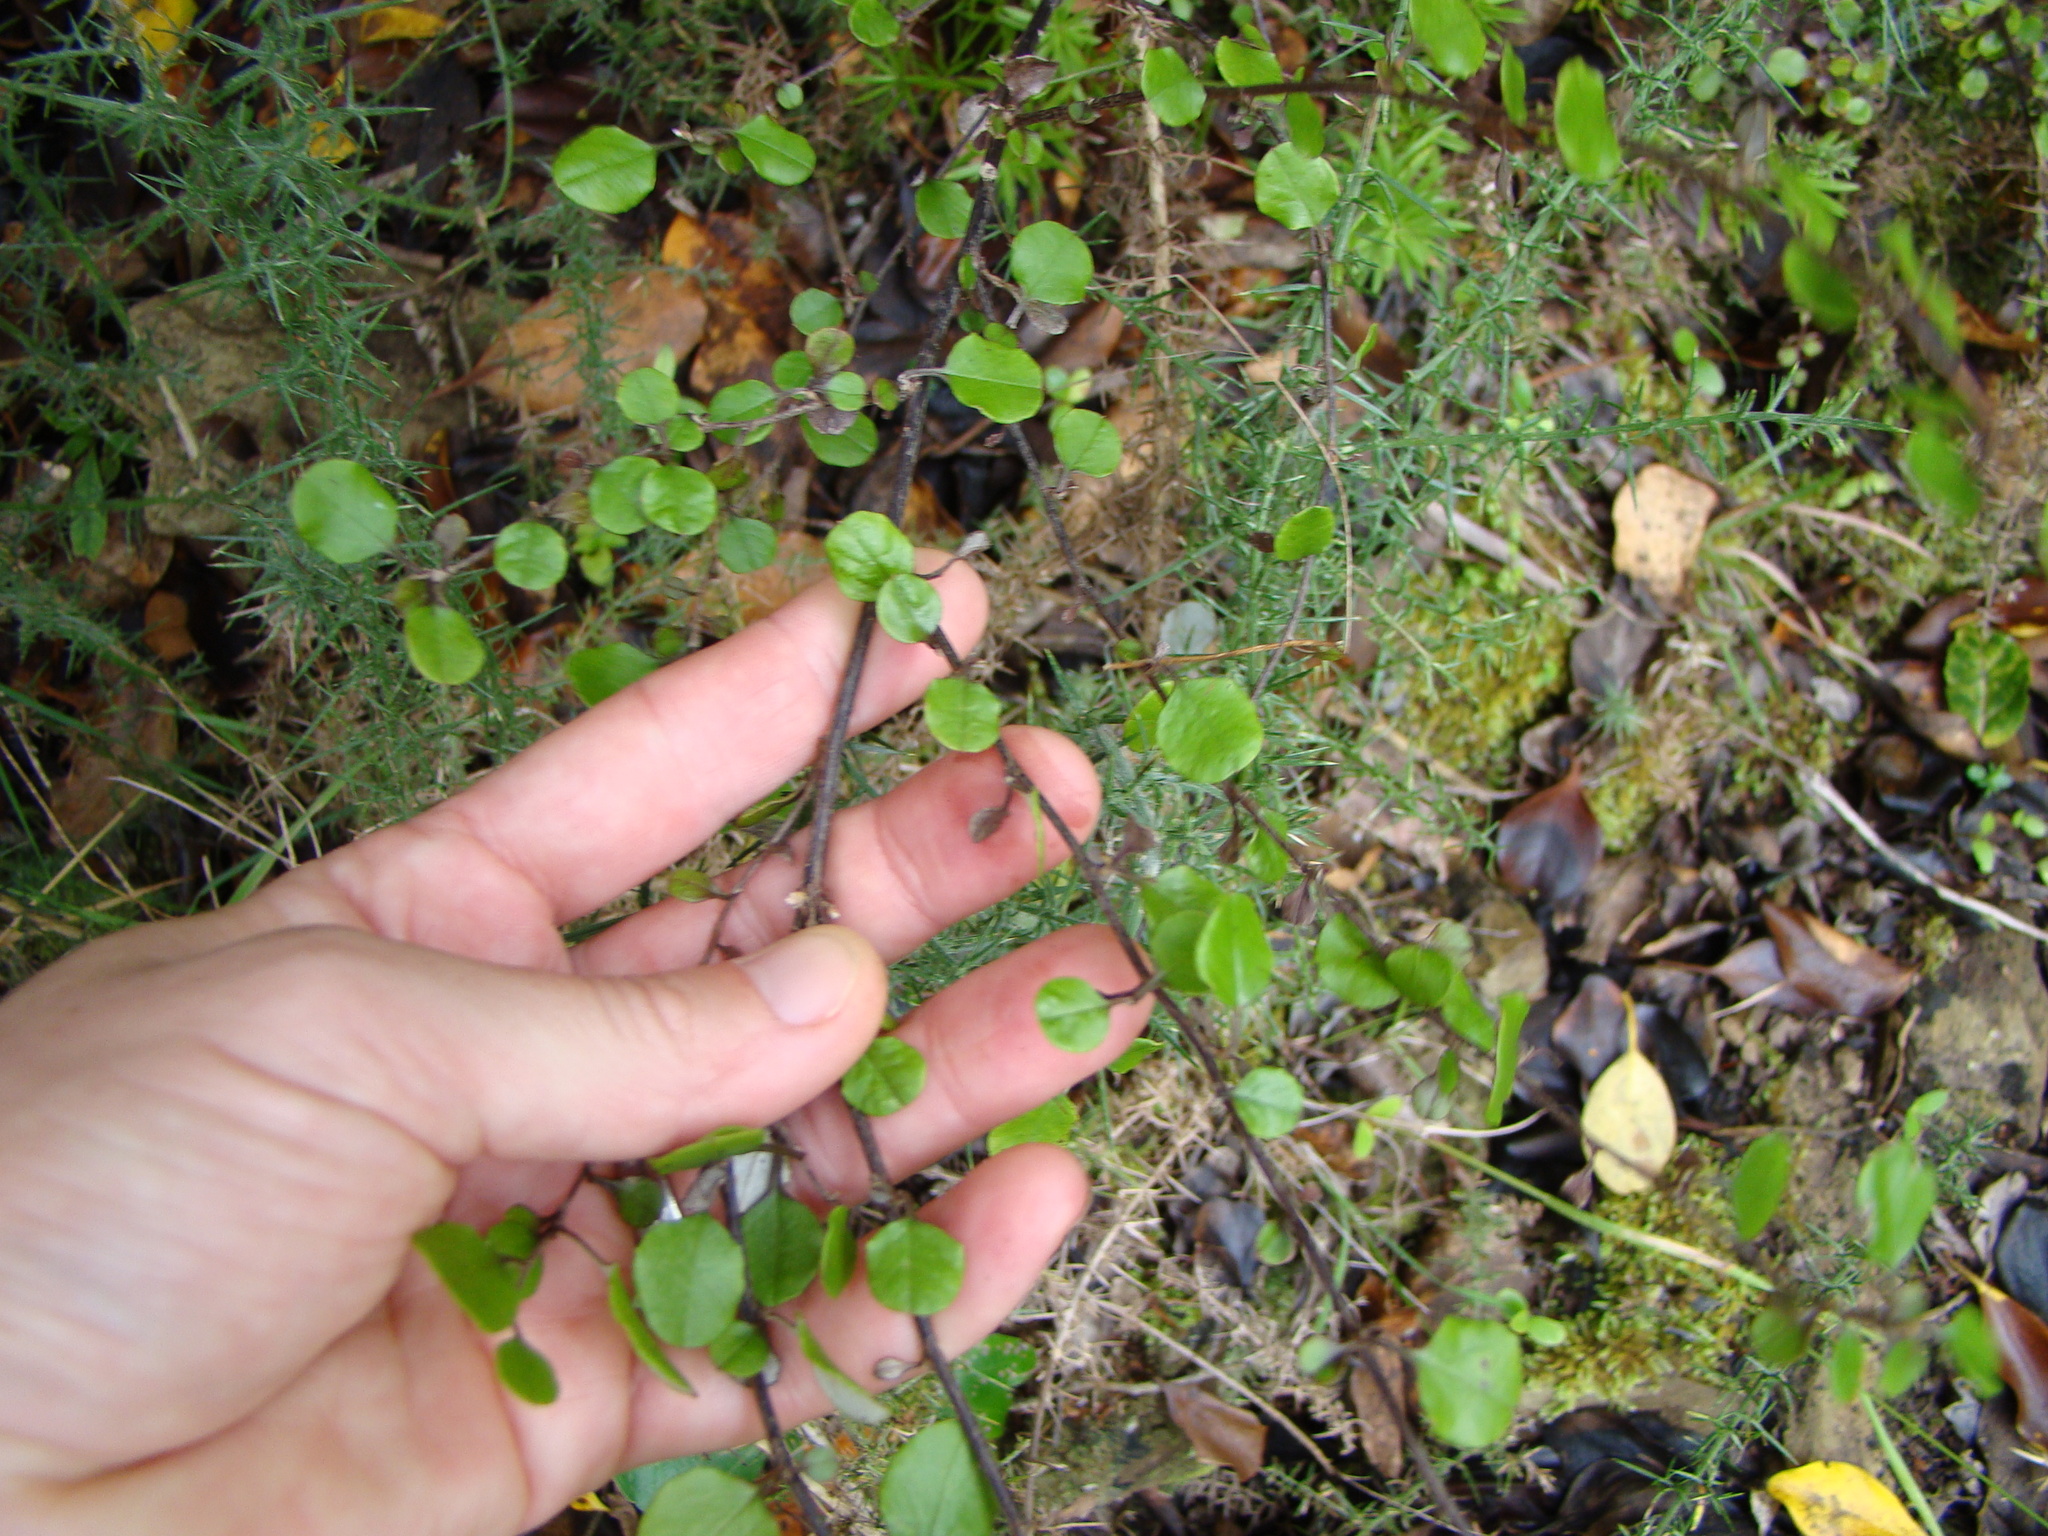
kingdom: Plantae
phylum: Tracheophyta
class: Magnoliopsida
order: Asterales
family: Asteraceae
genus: Ozothamnus
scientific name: Ozothamnus glomeratus
